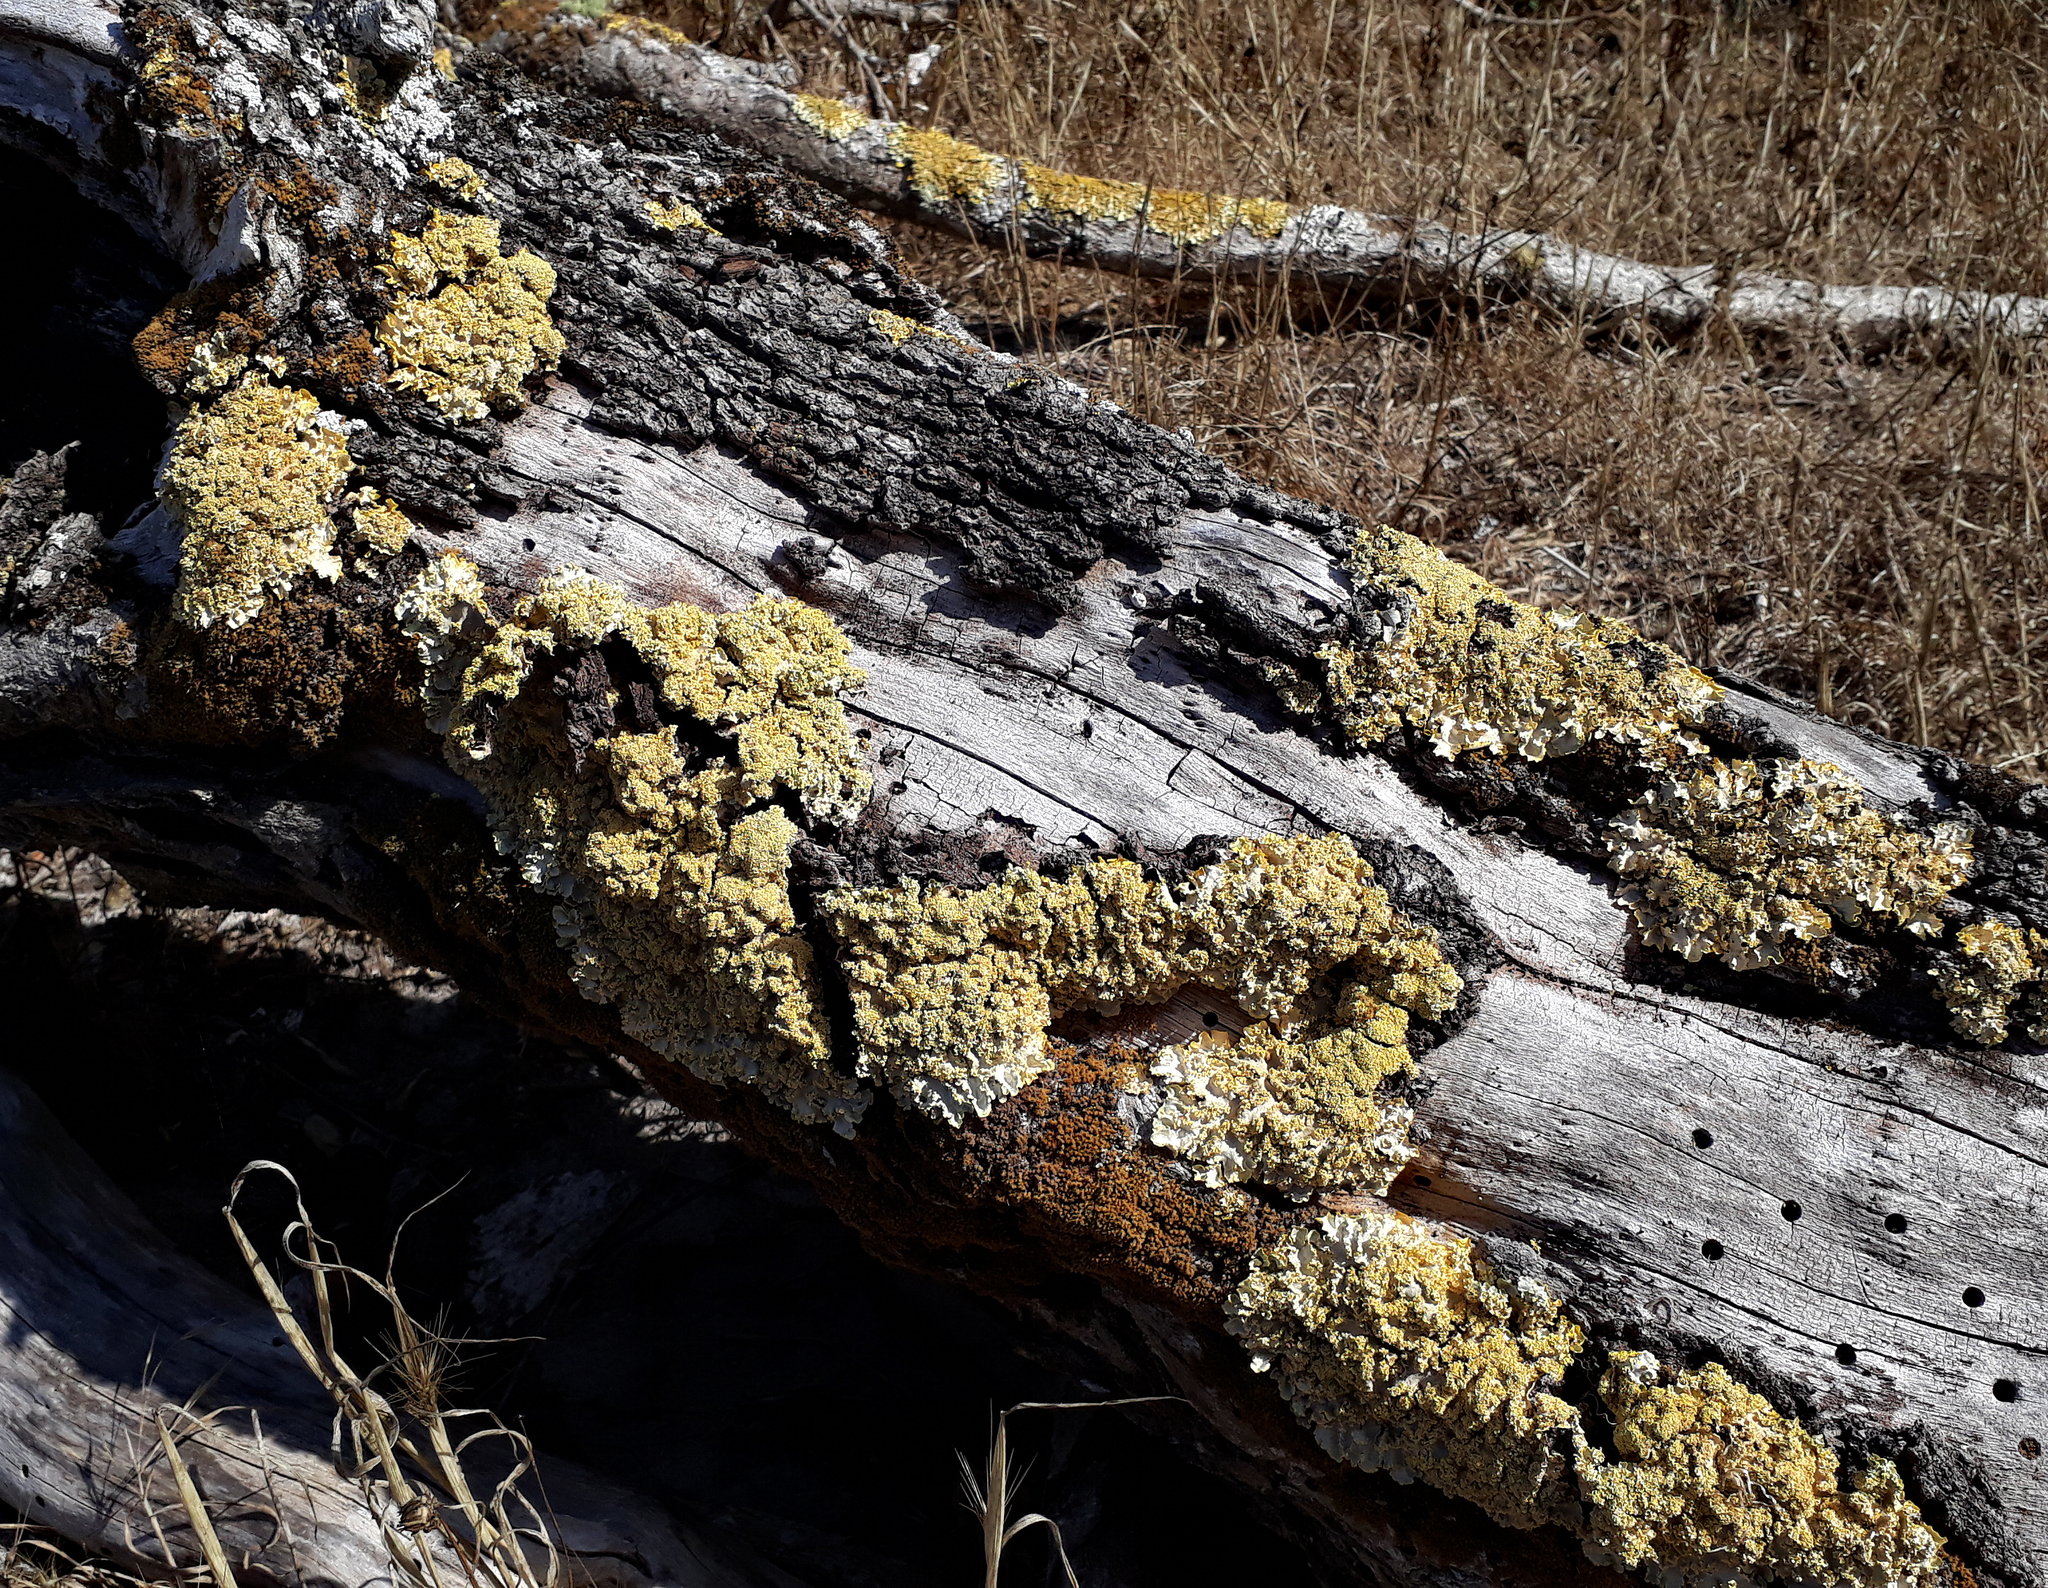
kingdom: Fungi
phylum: Ascomycota
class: Lecanoromycetes
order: Peltigerales
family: Lobariaceae
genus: Podostictina
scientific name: Podostictina pickeringii
